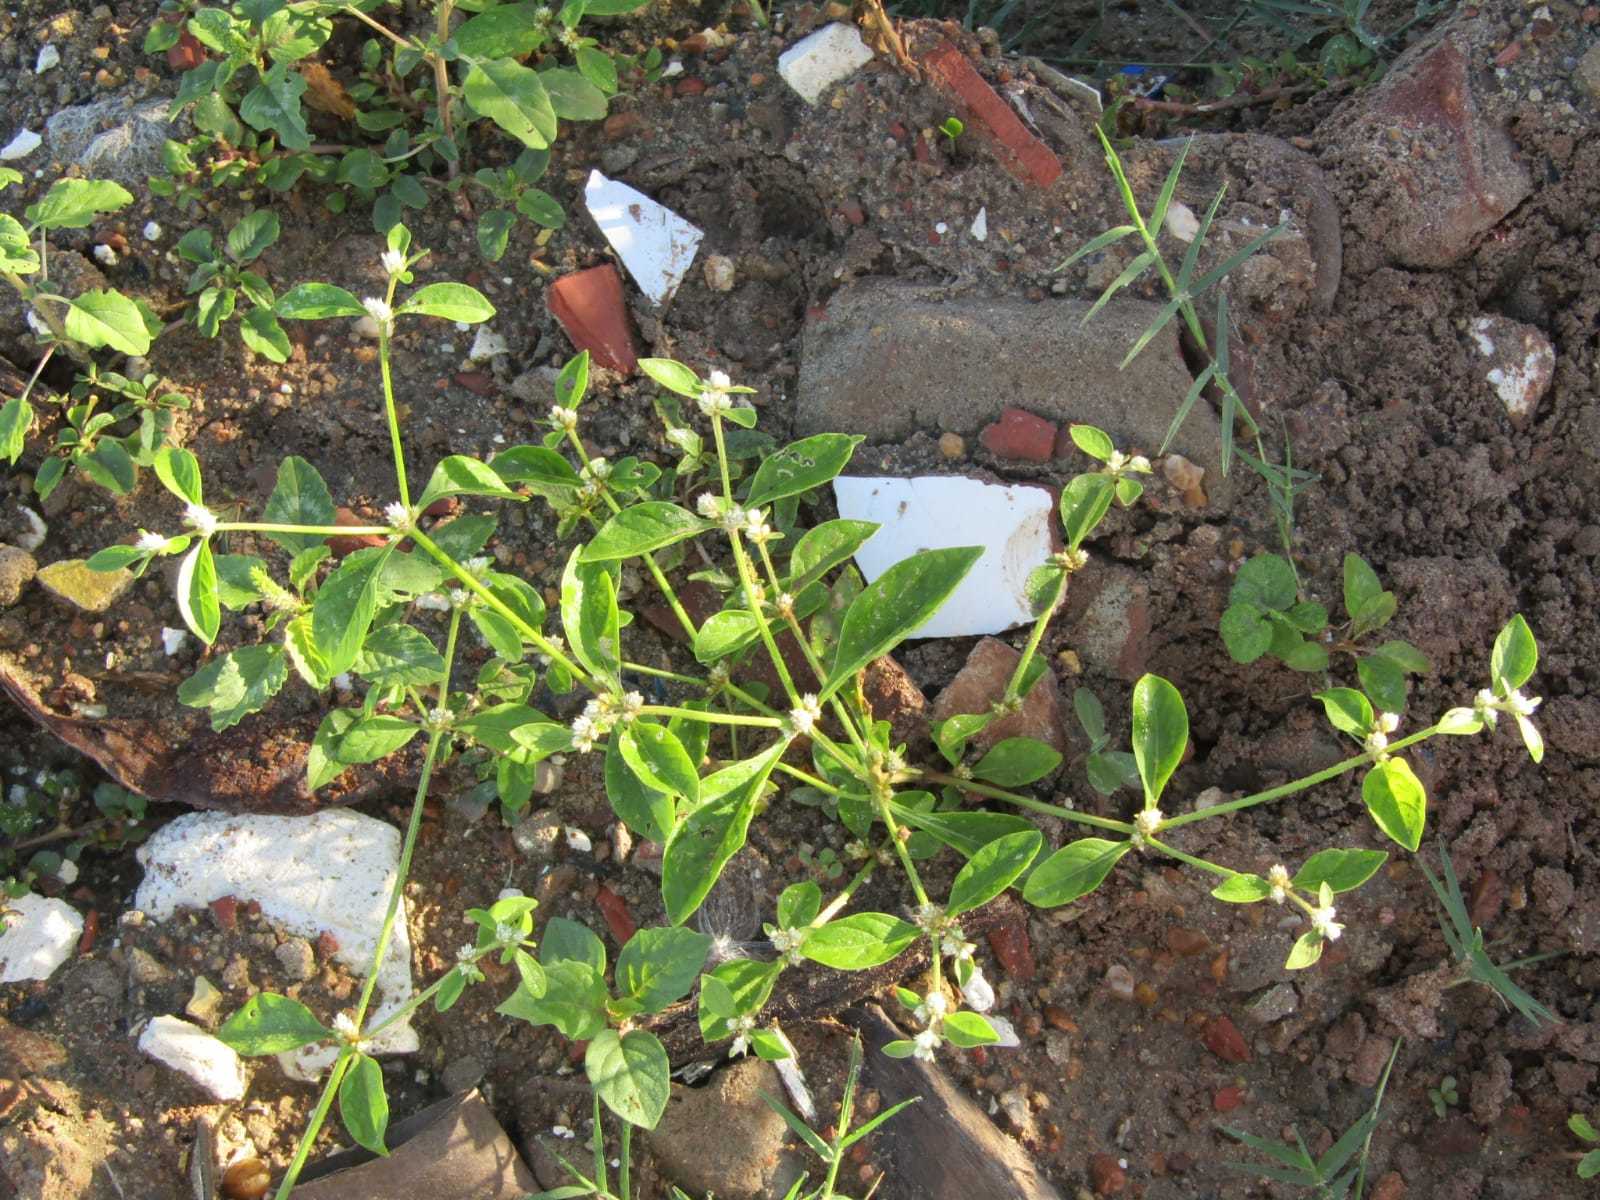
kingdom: Plantae
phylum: Tracheophyta
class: Magnoliopsida
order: Caryophyllales
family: Amaranthaceae
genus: Alternanthera
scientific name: Alternanthera ficoidea
